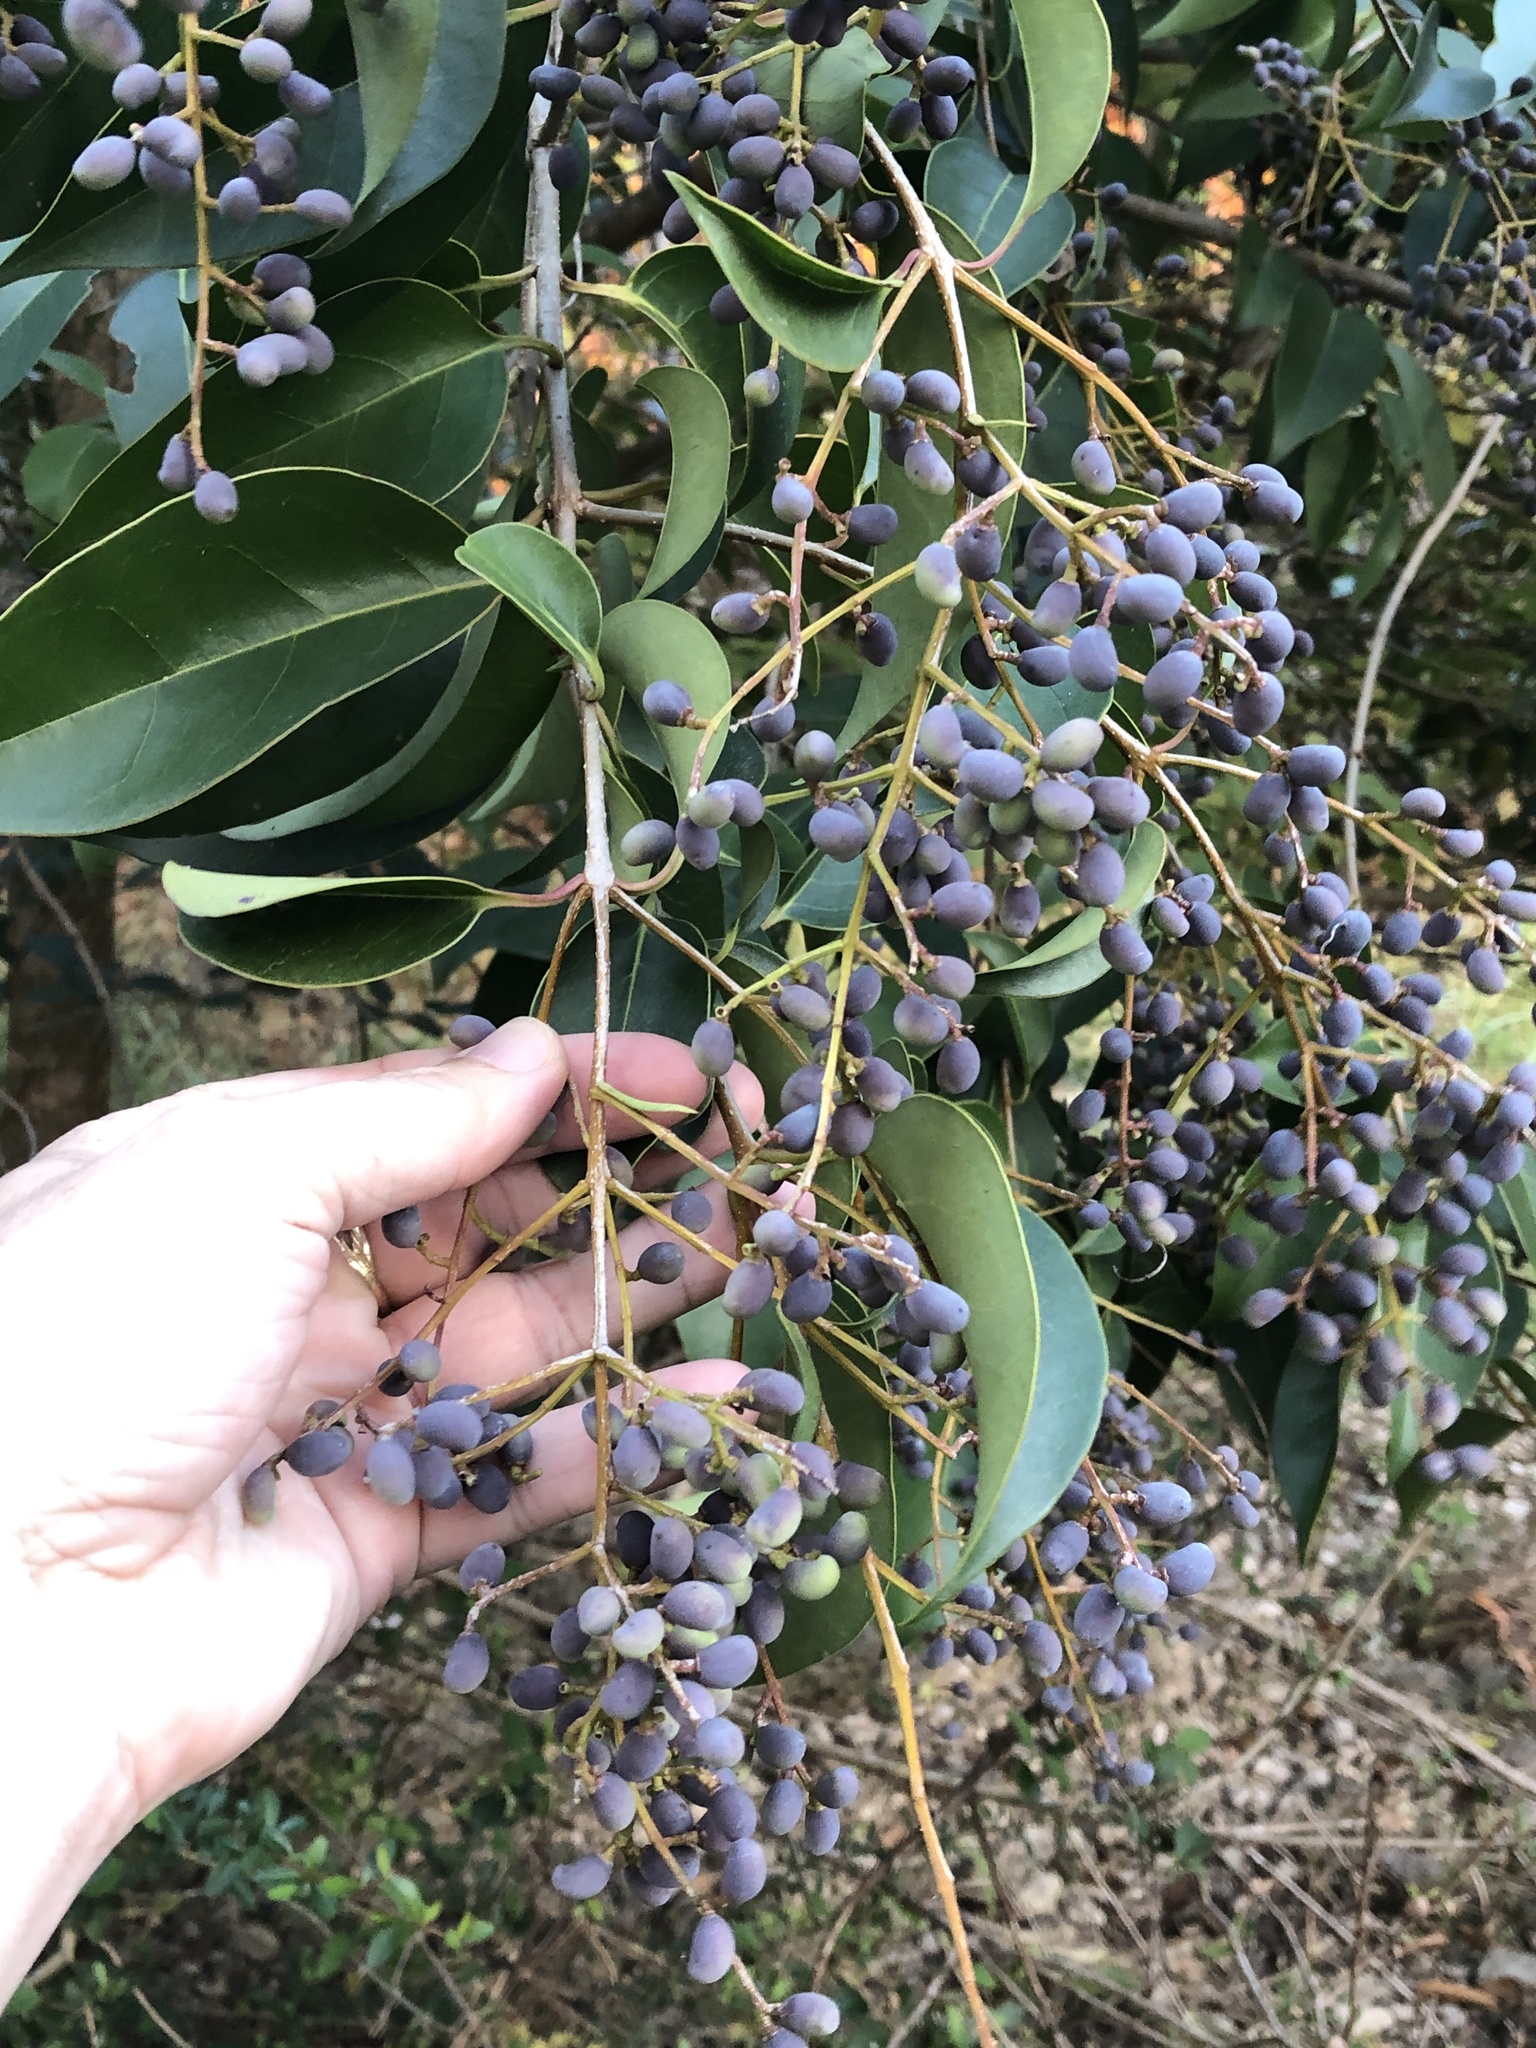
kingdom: Plantae
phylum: Tracheophyta
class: Magnoliopsida
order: Lamiales
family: Oleaceae
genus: Ligustrum
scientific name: Ligustrum lucidum
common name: Glossy privet
